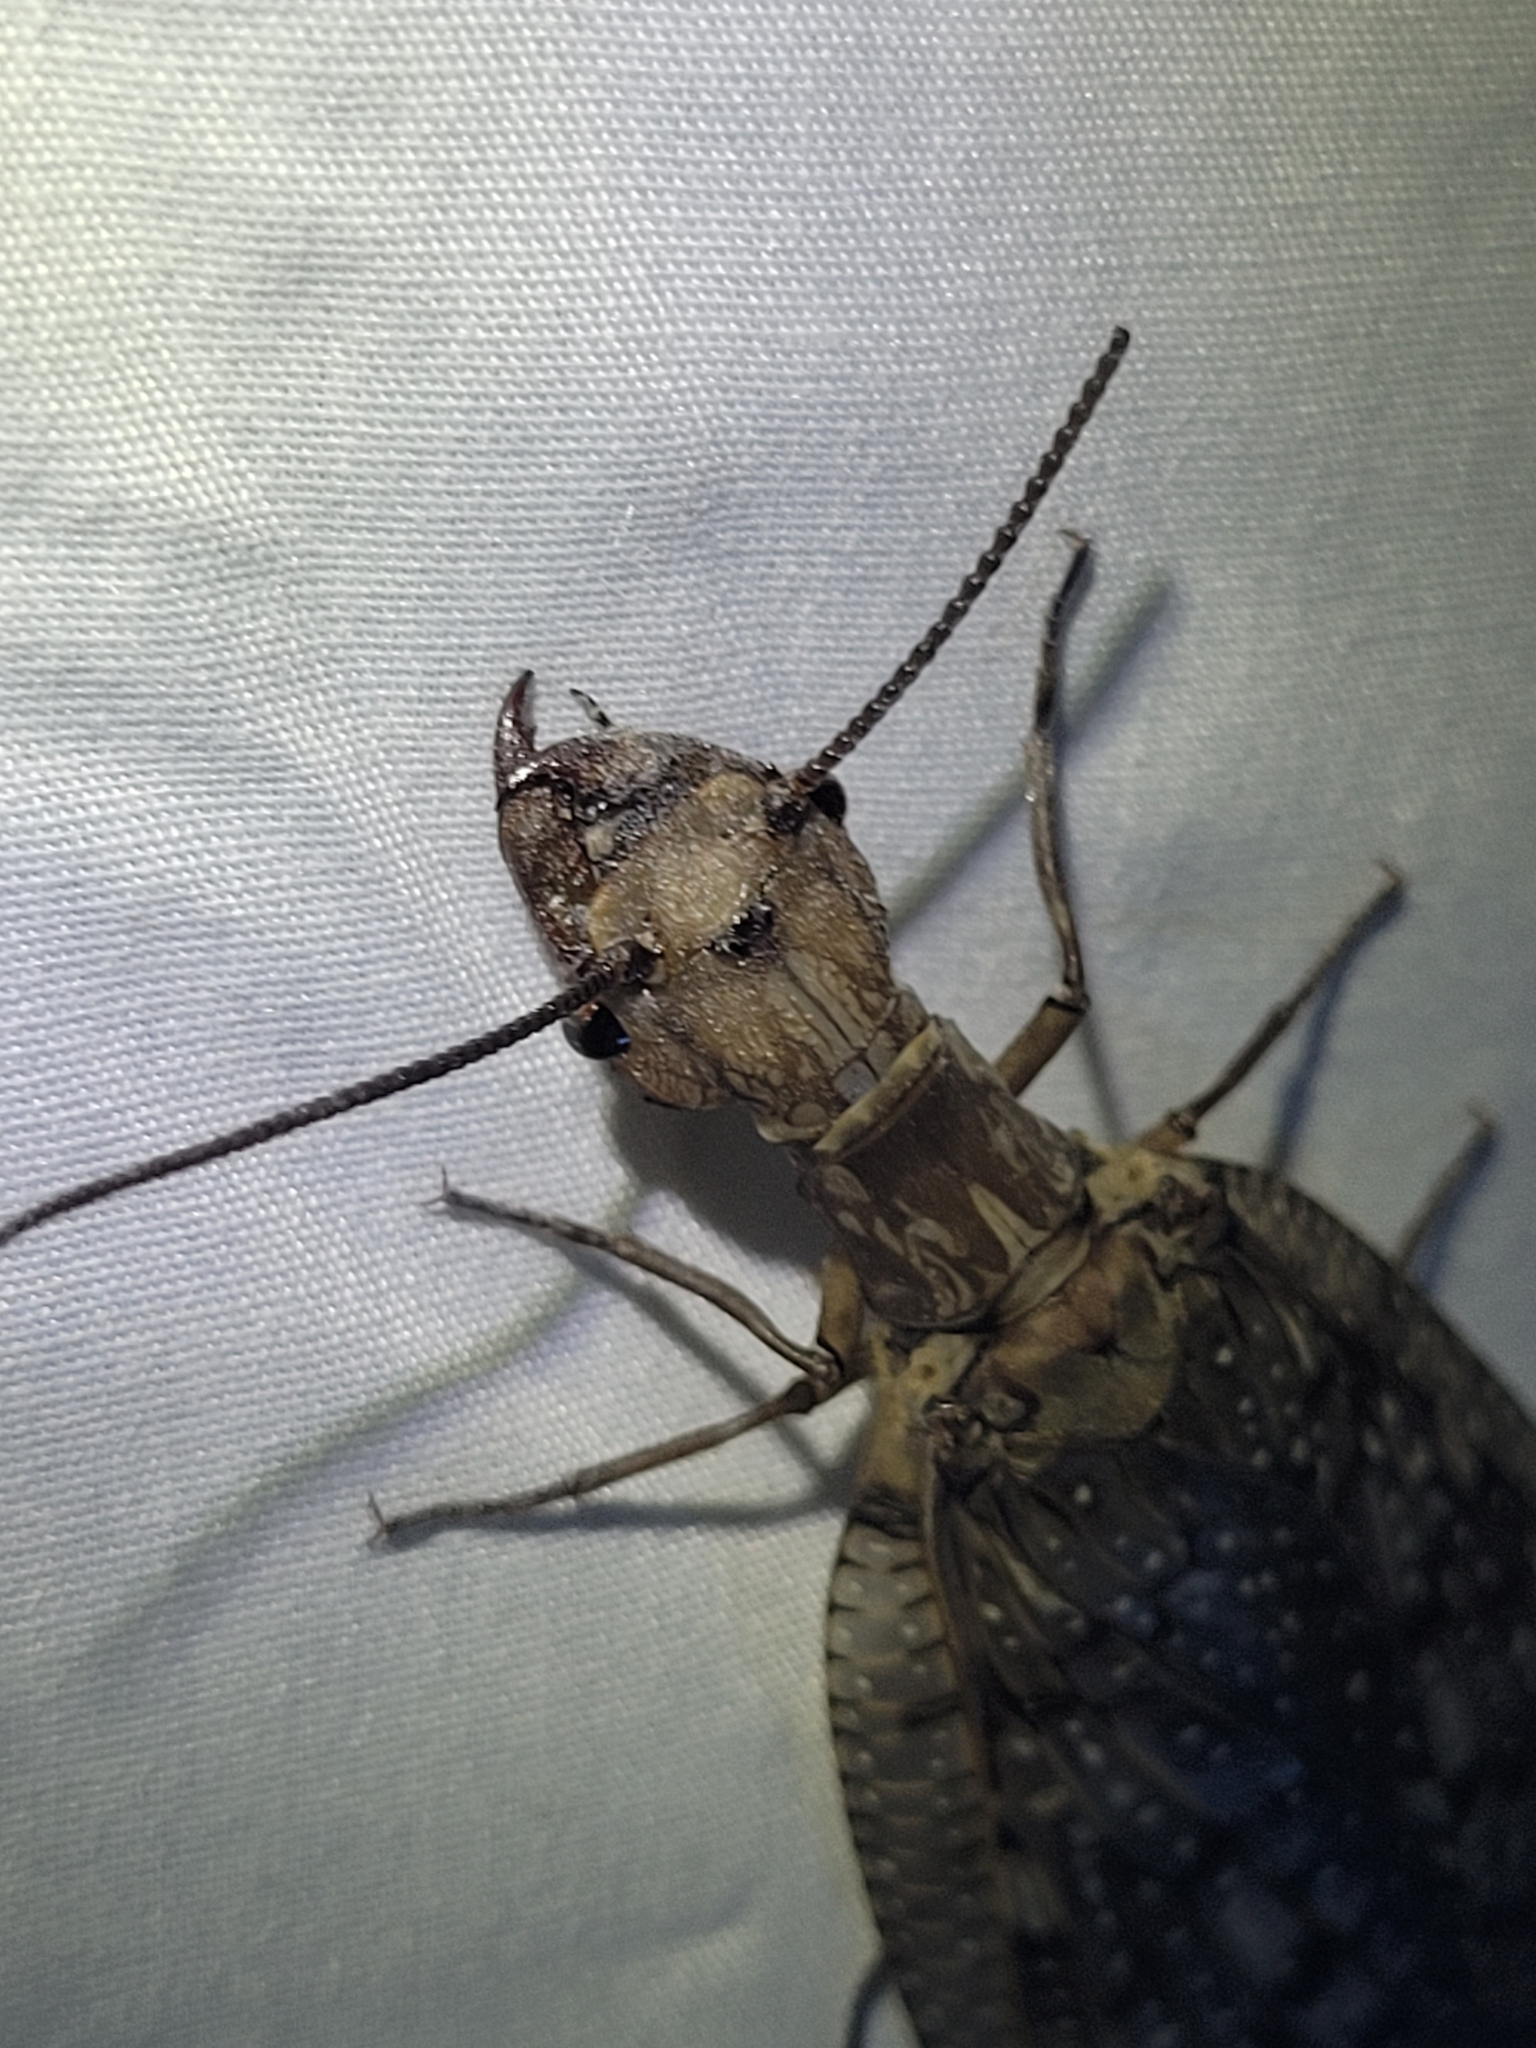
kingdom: Animalia
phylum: Arthropoda
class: Insecta
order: Megaloptera
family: Corydalidae
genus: Corydalus
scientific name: Corydalus cornutus
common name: Dobsonfly
